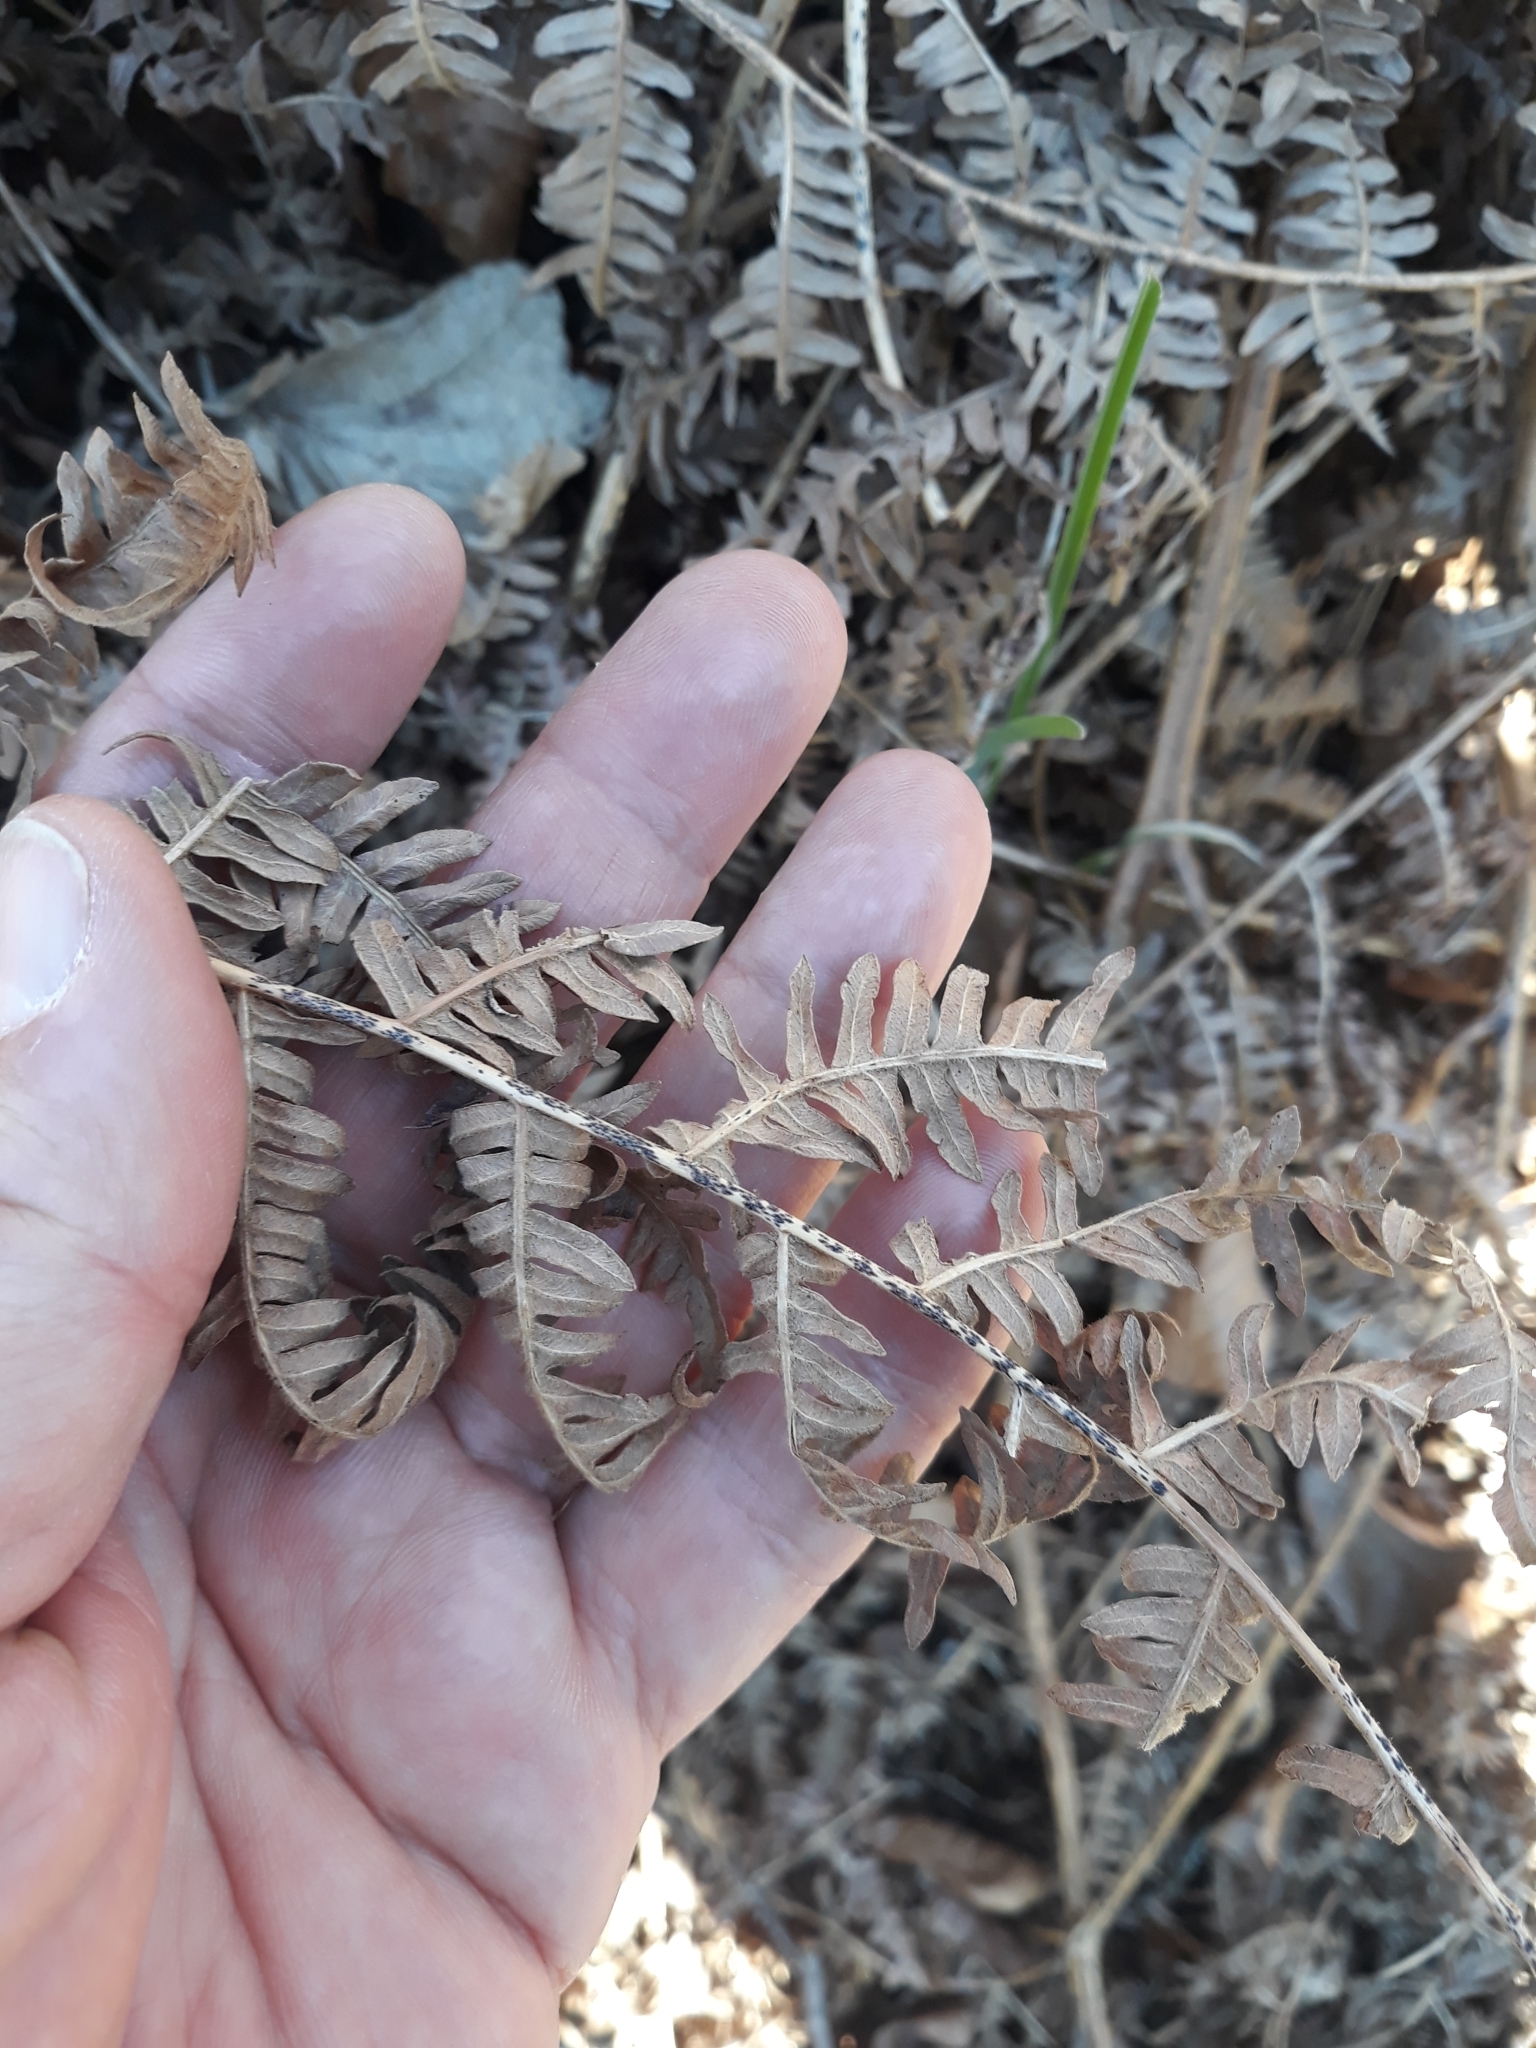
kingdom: Plantae
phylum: Tracheophyta
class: Polypodiopsida
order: Polypodiales
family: Dennstaedtiaceae
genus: Pteridium
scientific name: Pteridium aquilinum
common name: Bracken
